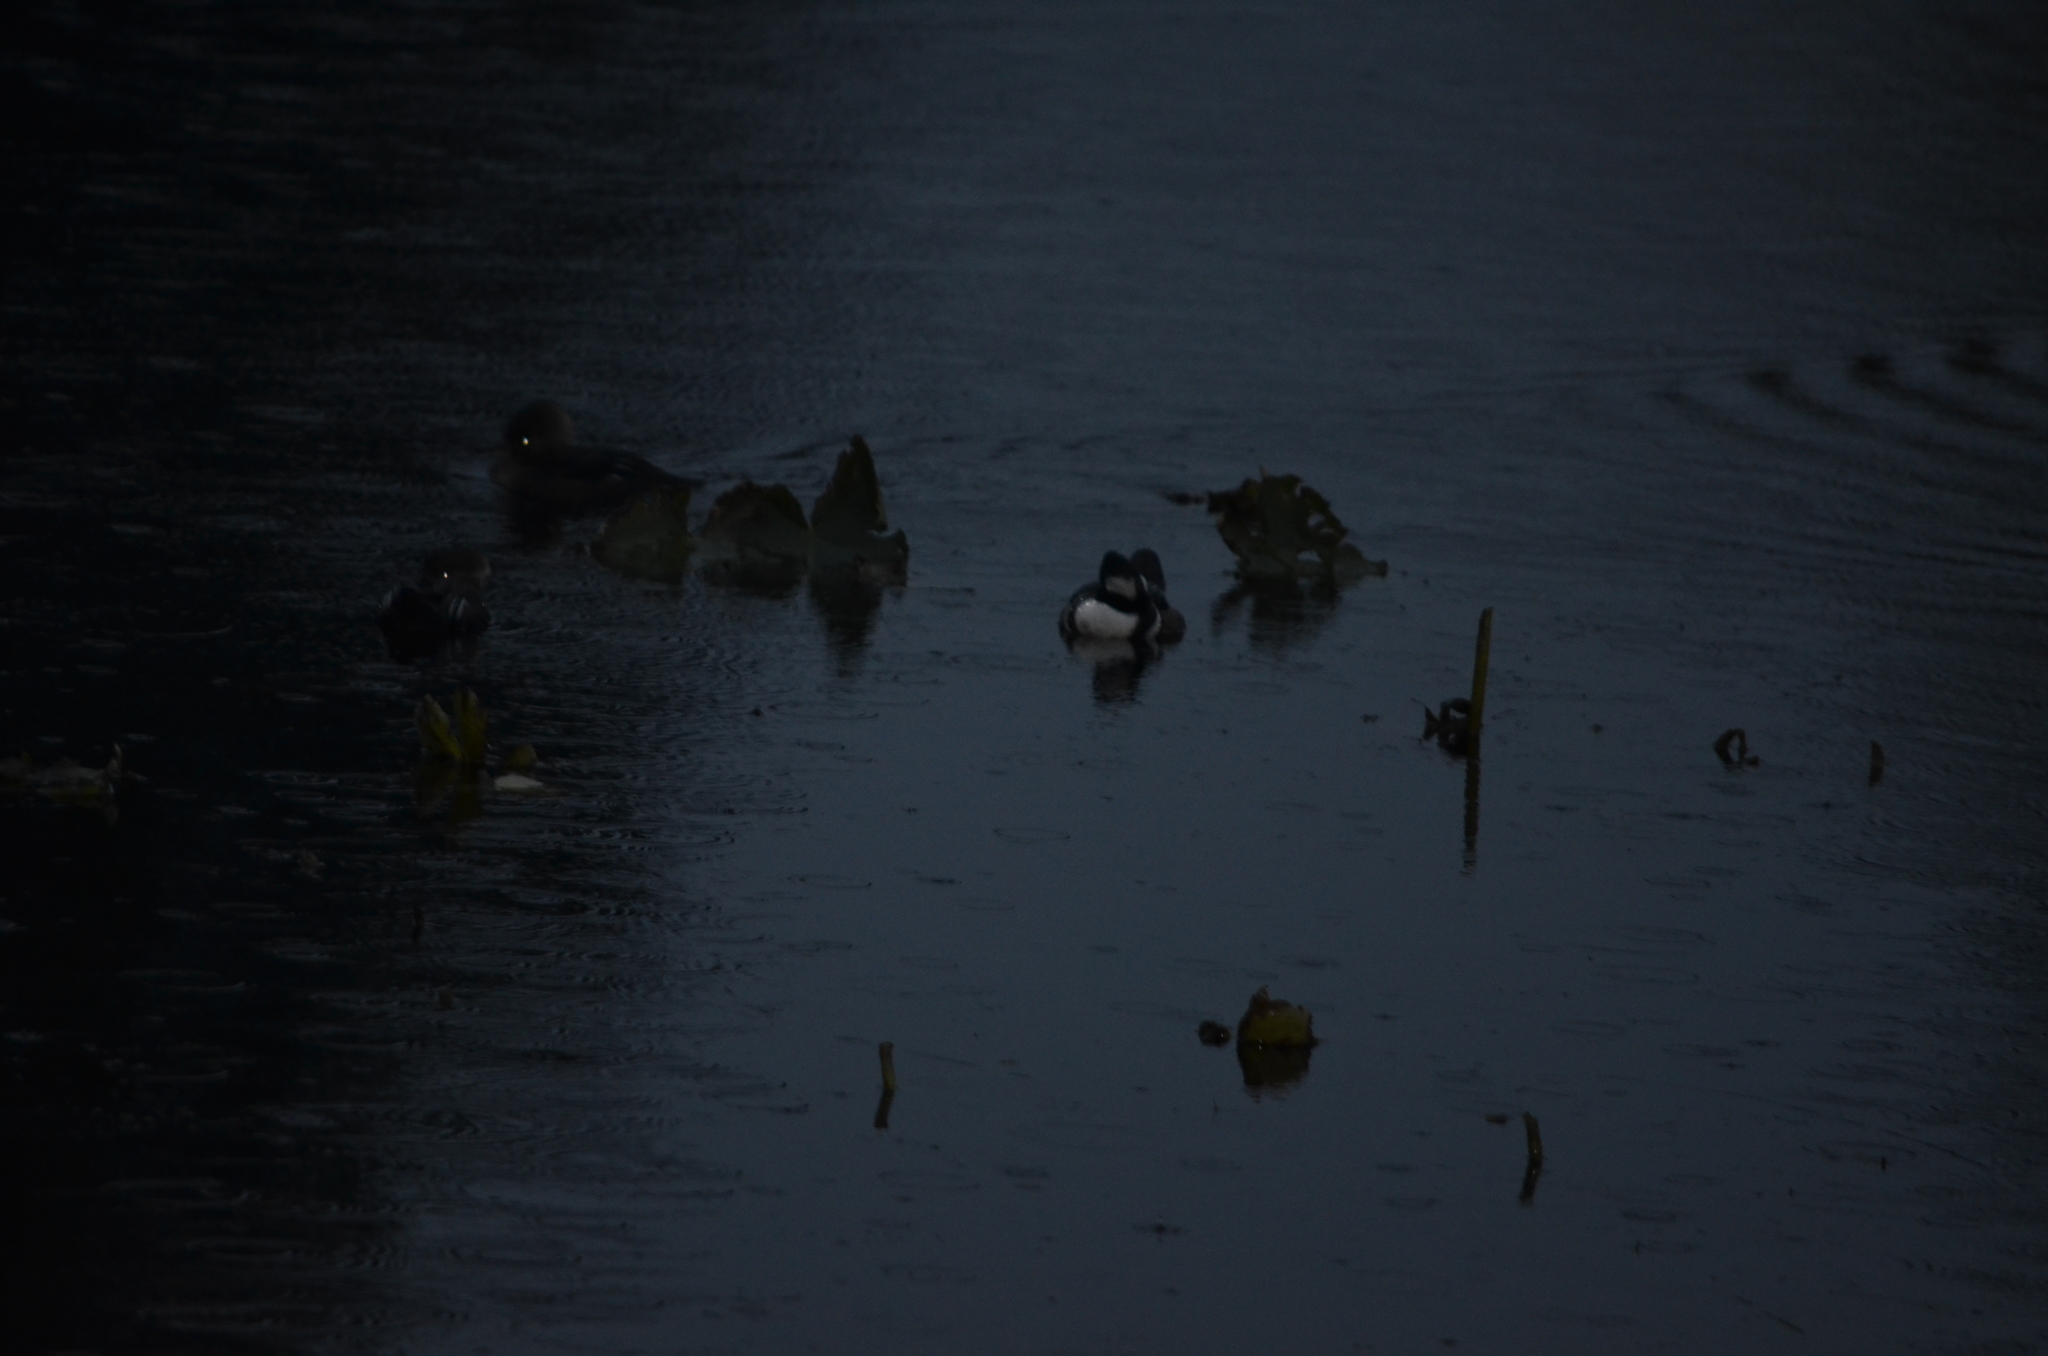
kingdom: Animalia
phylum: Chordata
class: Aves
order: Anseriformes
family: Anatidae
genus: Lophodytes
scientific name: Lophodytes cucullatus
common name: Hooded merganser
